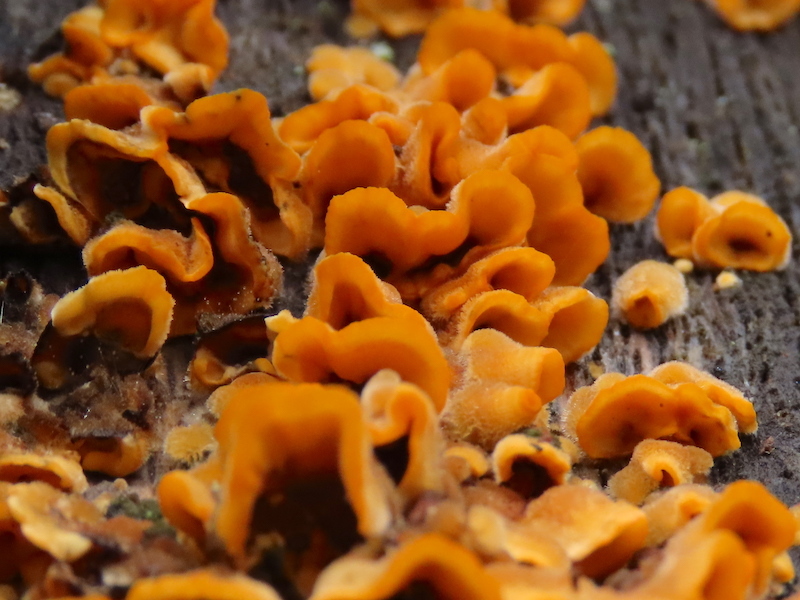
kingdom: Fungi
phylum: Basidiomycota
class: Agaricomycetes
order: Russulales
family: Stereaceae
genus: Stereum
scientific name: Stereum complicatum
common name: Crowded parchment
